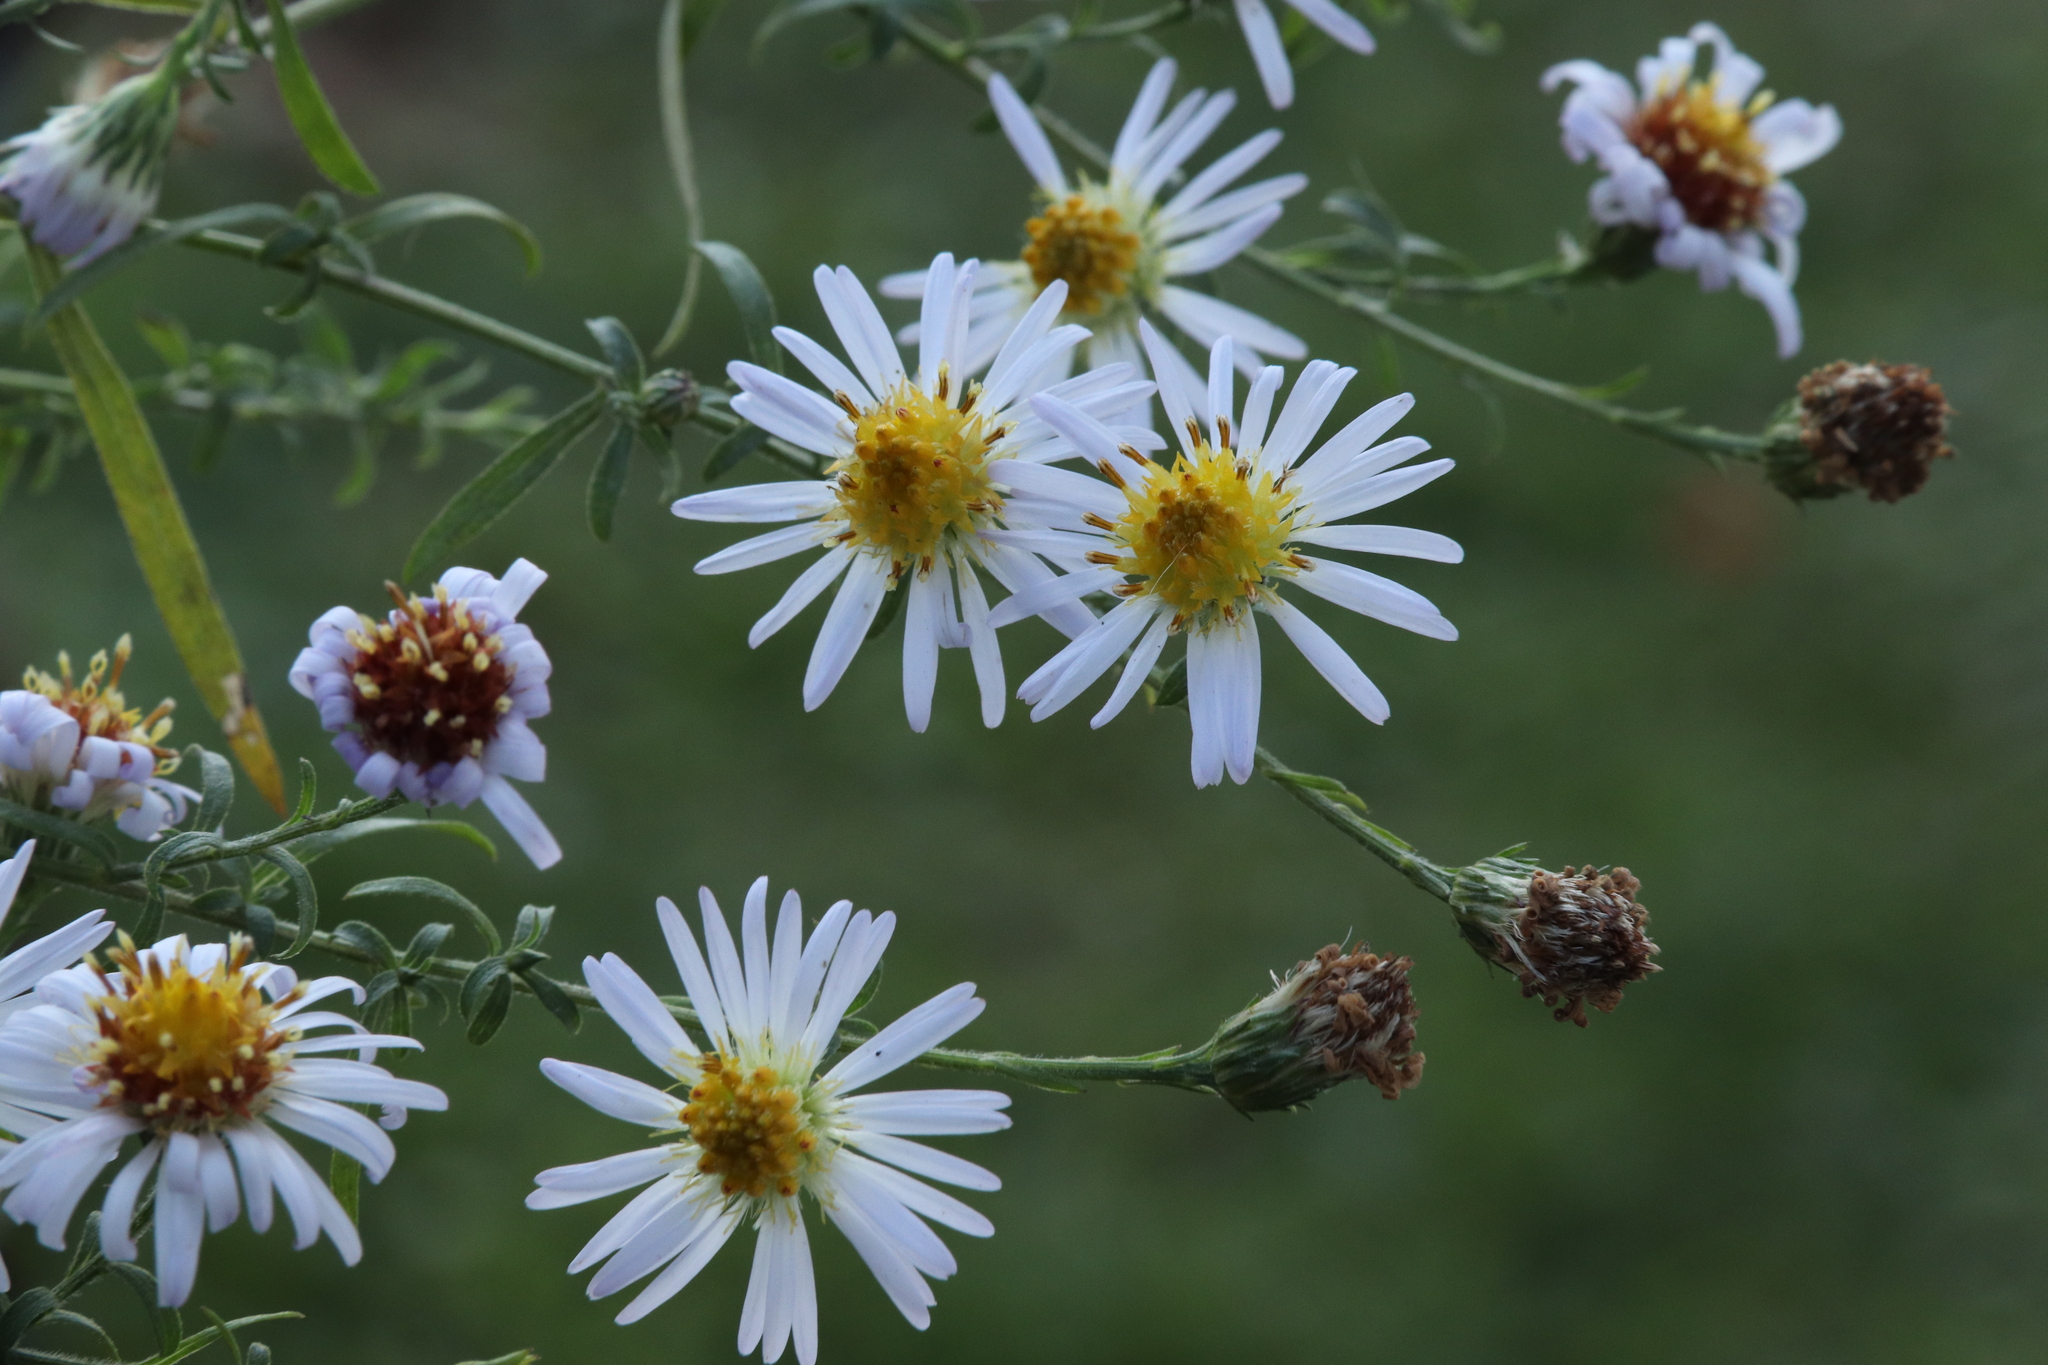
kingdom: Plantae
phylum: Tracheophyta
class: Magnoliopsida
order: Asterales
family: Asteraceae
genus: Symphyotrichum
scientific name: Symphyotrichum lanceolatum
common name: Panicled aster
